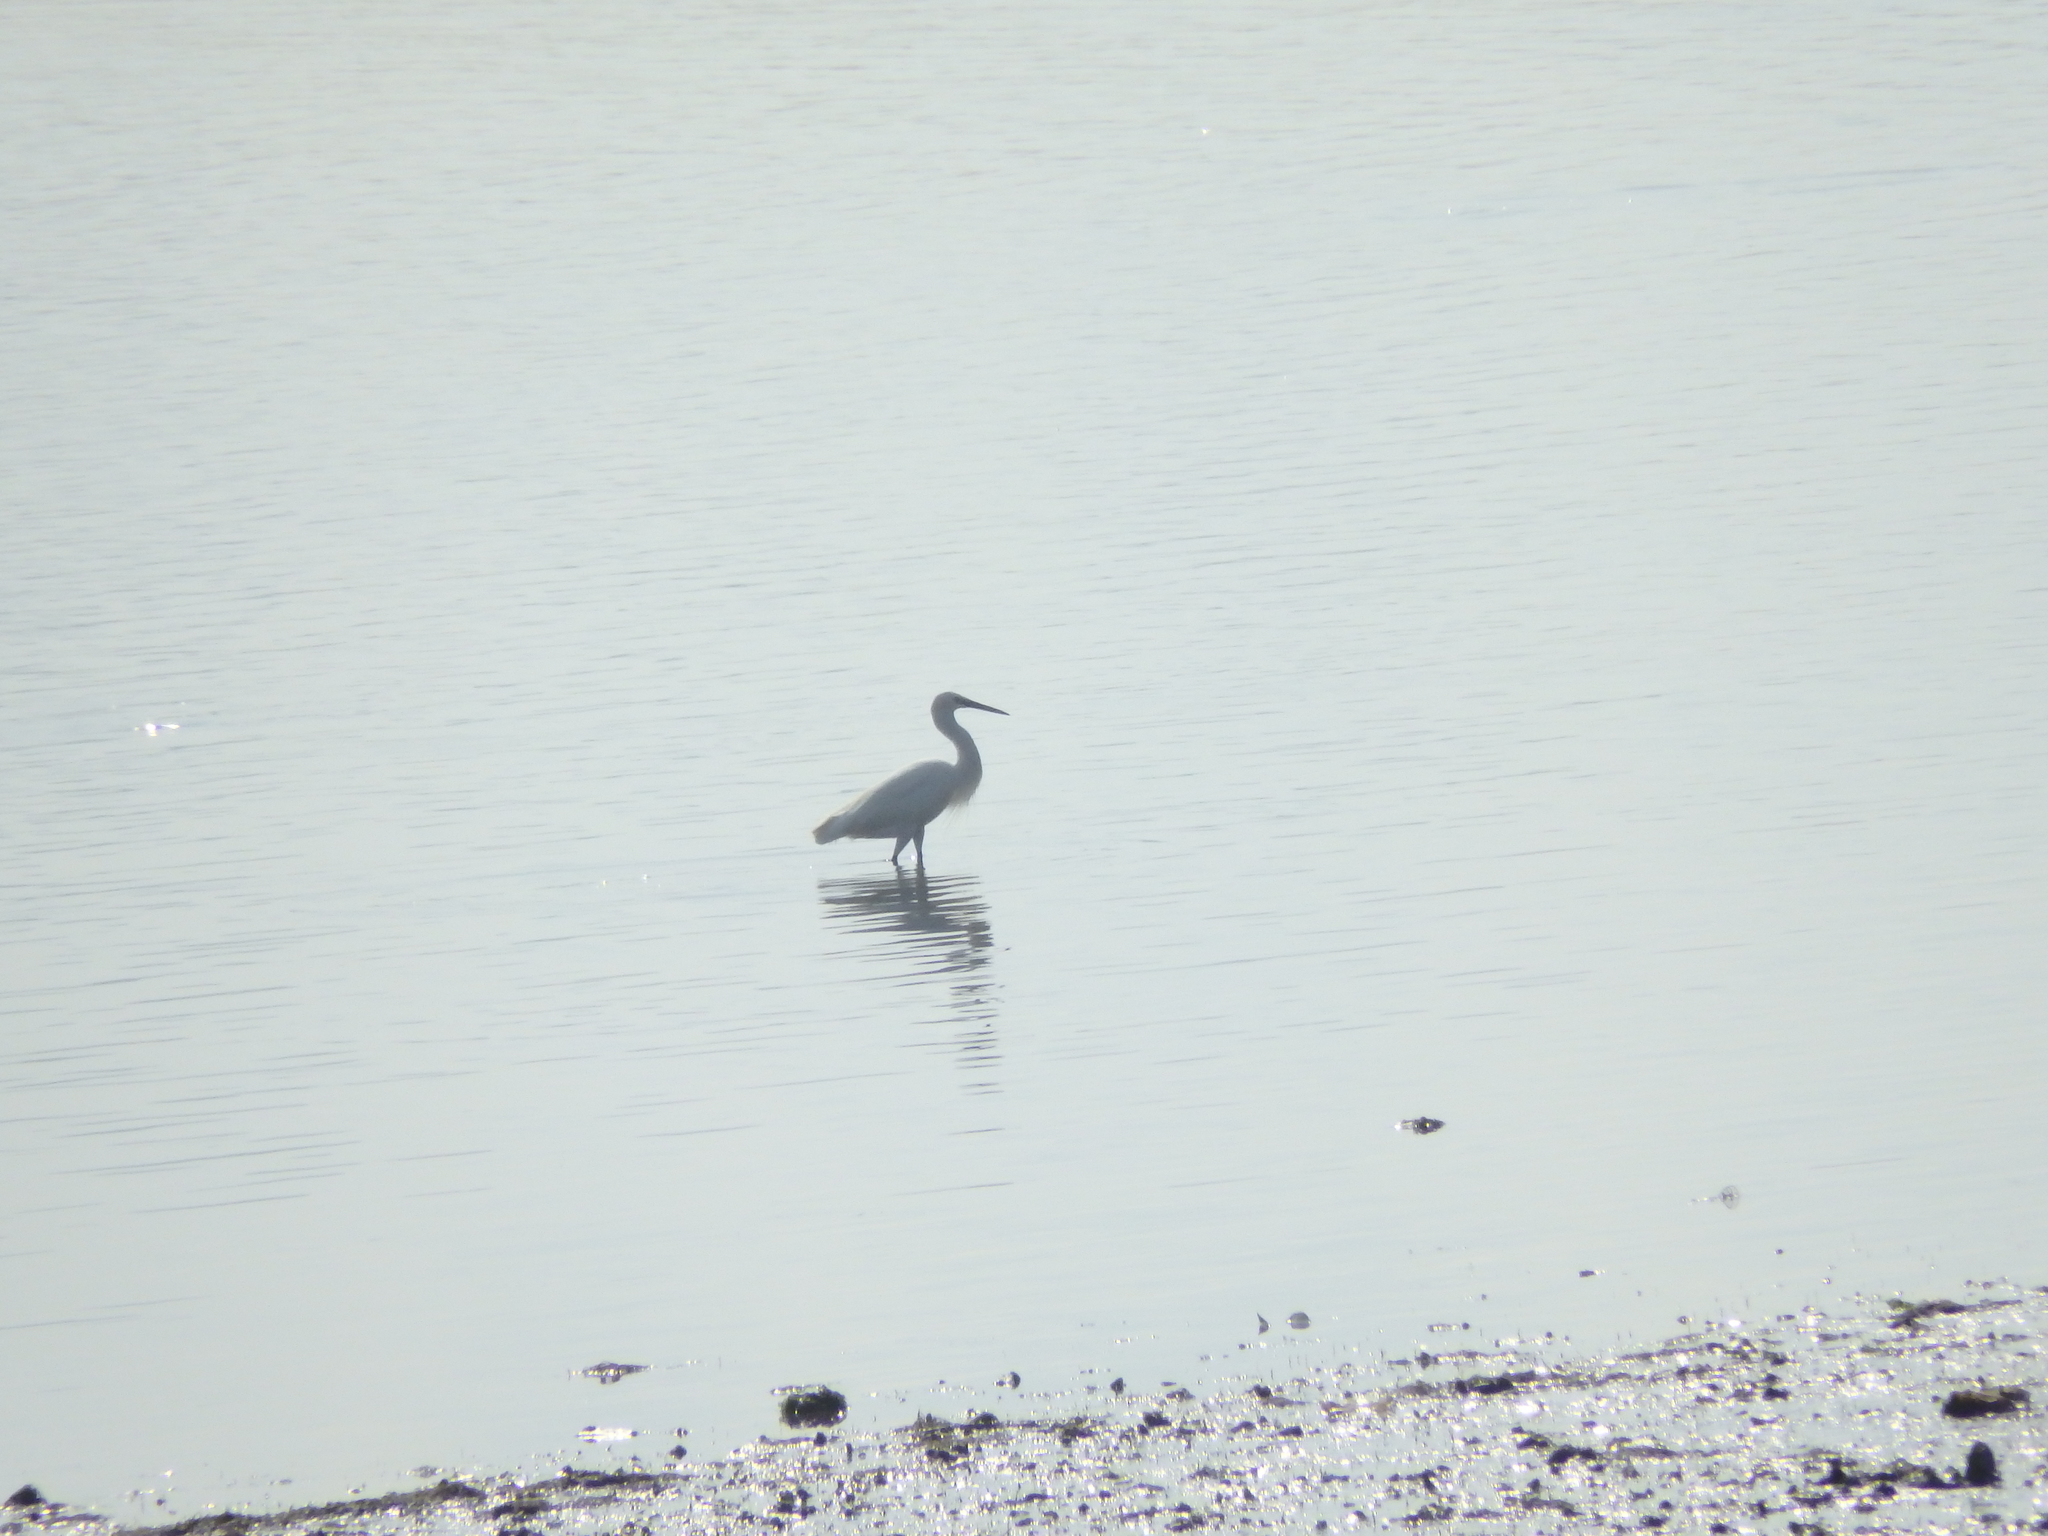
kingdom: Animalia
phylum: Chordata
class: Aves
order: Pelecaniformes
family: Ardeidae
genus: Egretta
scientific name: Egretta garzetta
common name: Little egret
